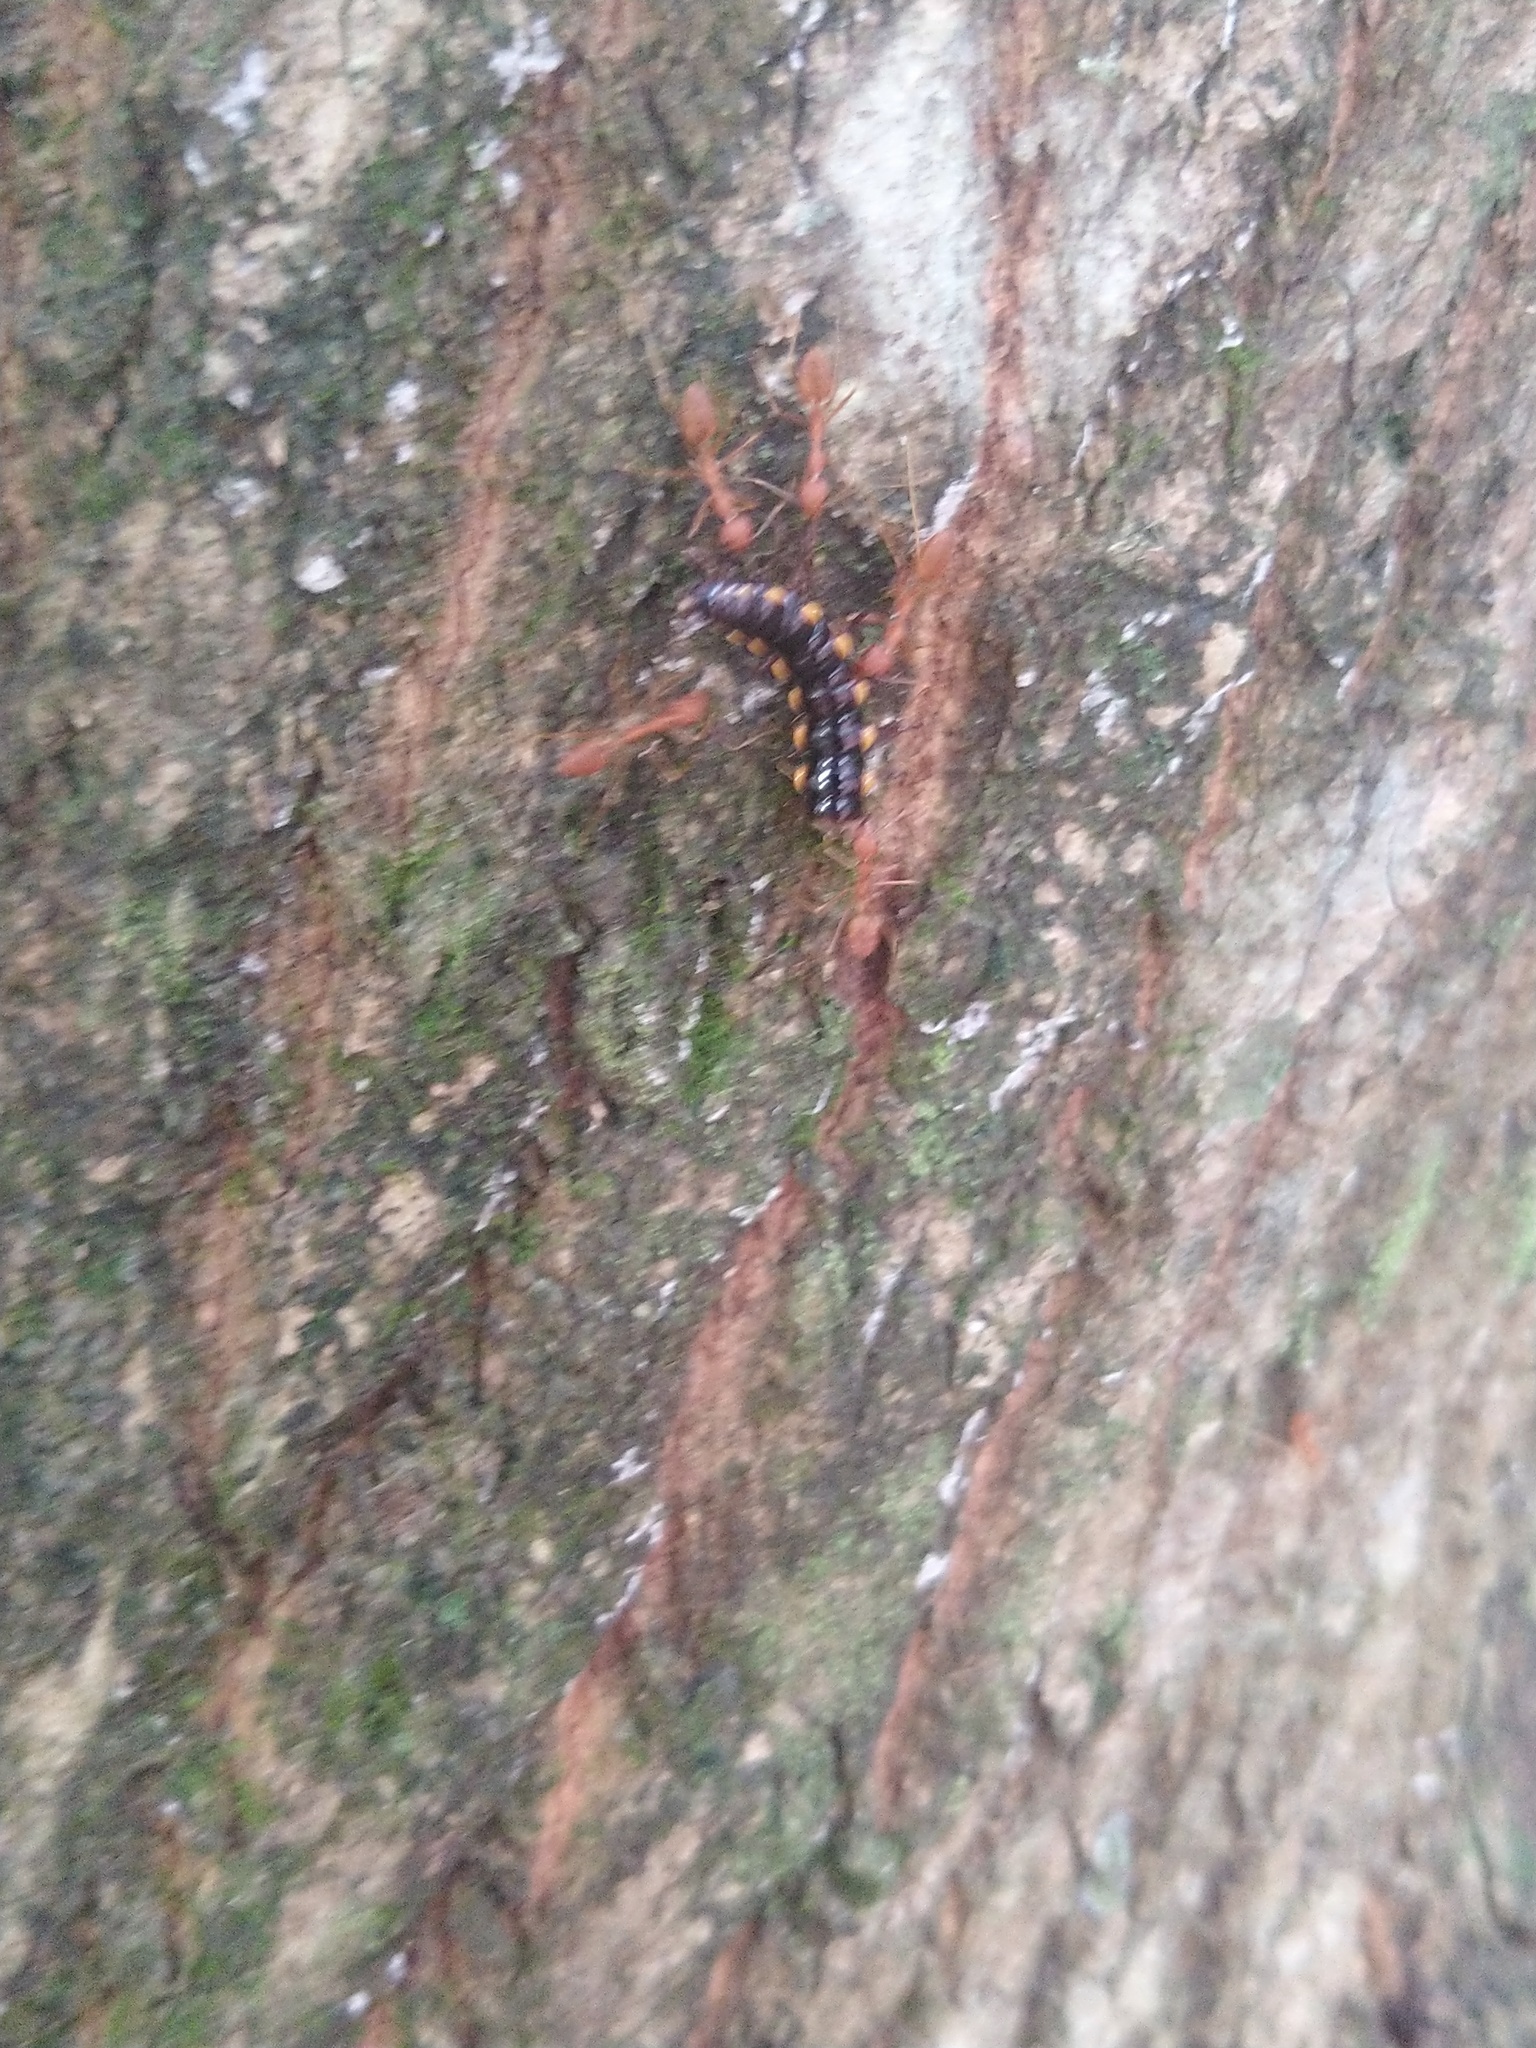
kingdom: Animalia
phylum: Arthropoda
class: Insecta
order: Hymenoptera
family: Formicidae
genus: Oecophylla
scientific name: Oecophylla smaragdina
